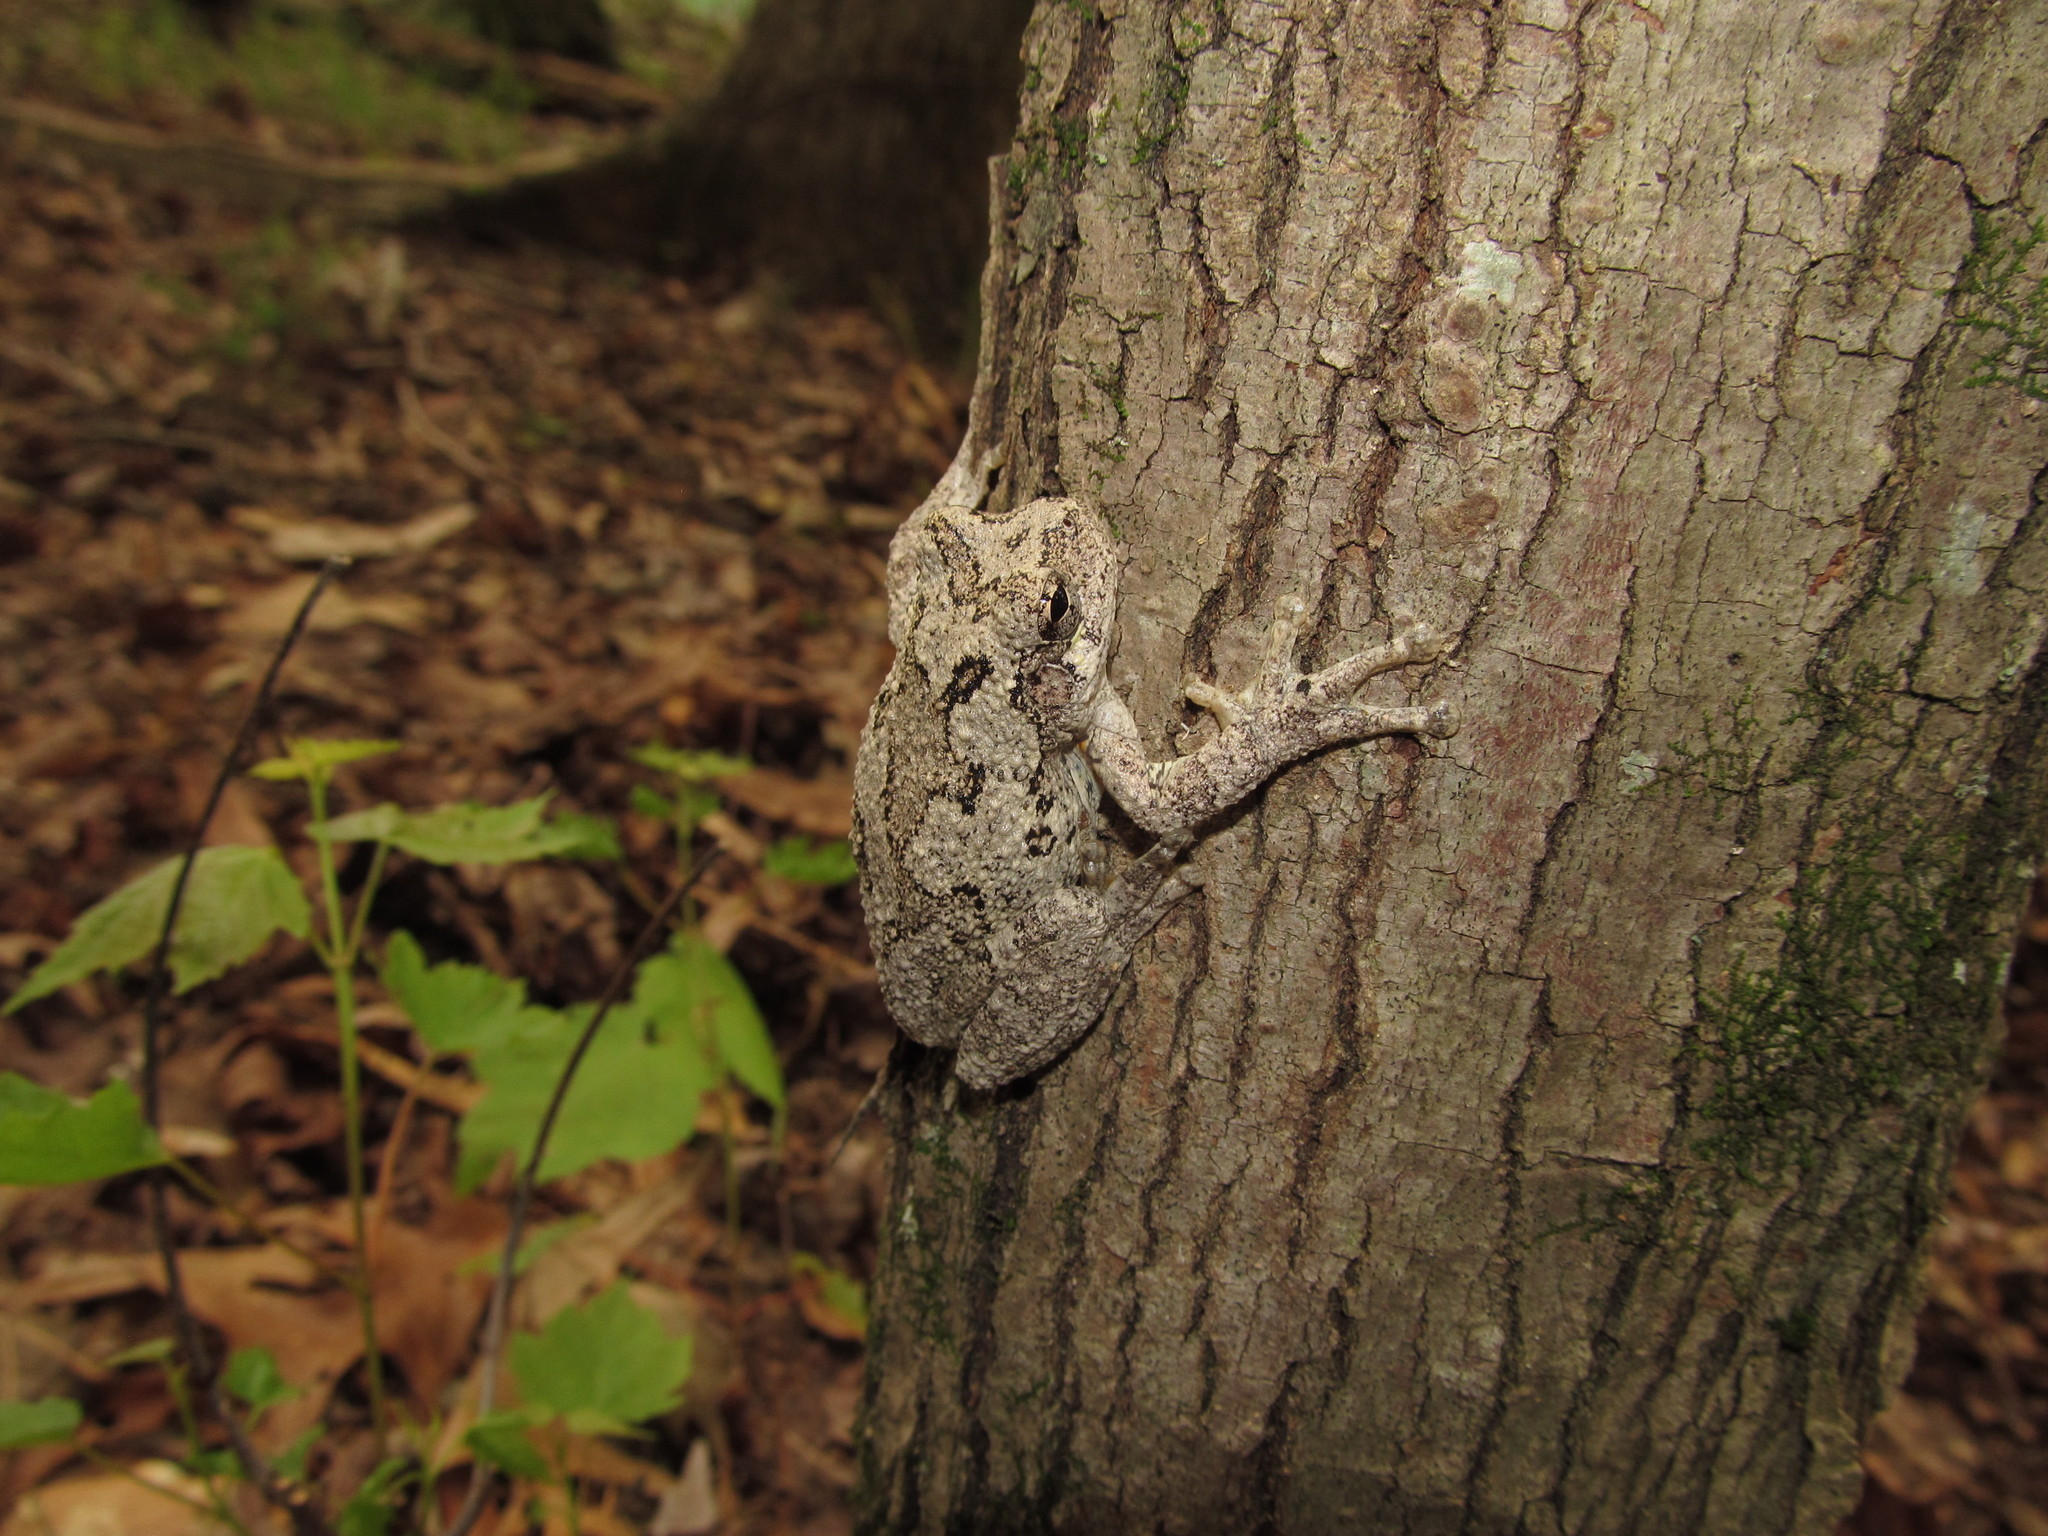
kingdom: Animalia
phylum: Chordata
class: Amphibia
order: Anura
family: Hylidae
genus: Dryophytes
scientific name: Dryophytes chrysoscelis
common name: Cope's gray treefrog
